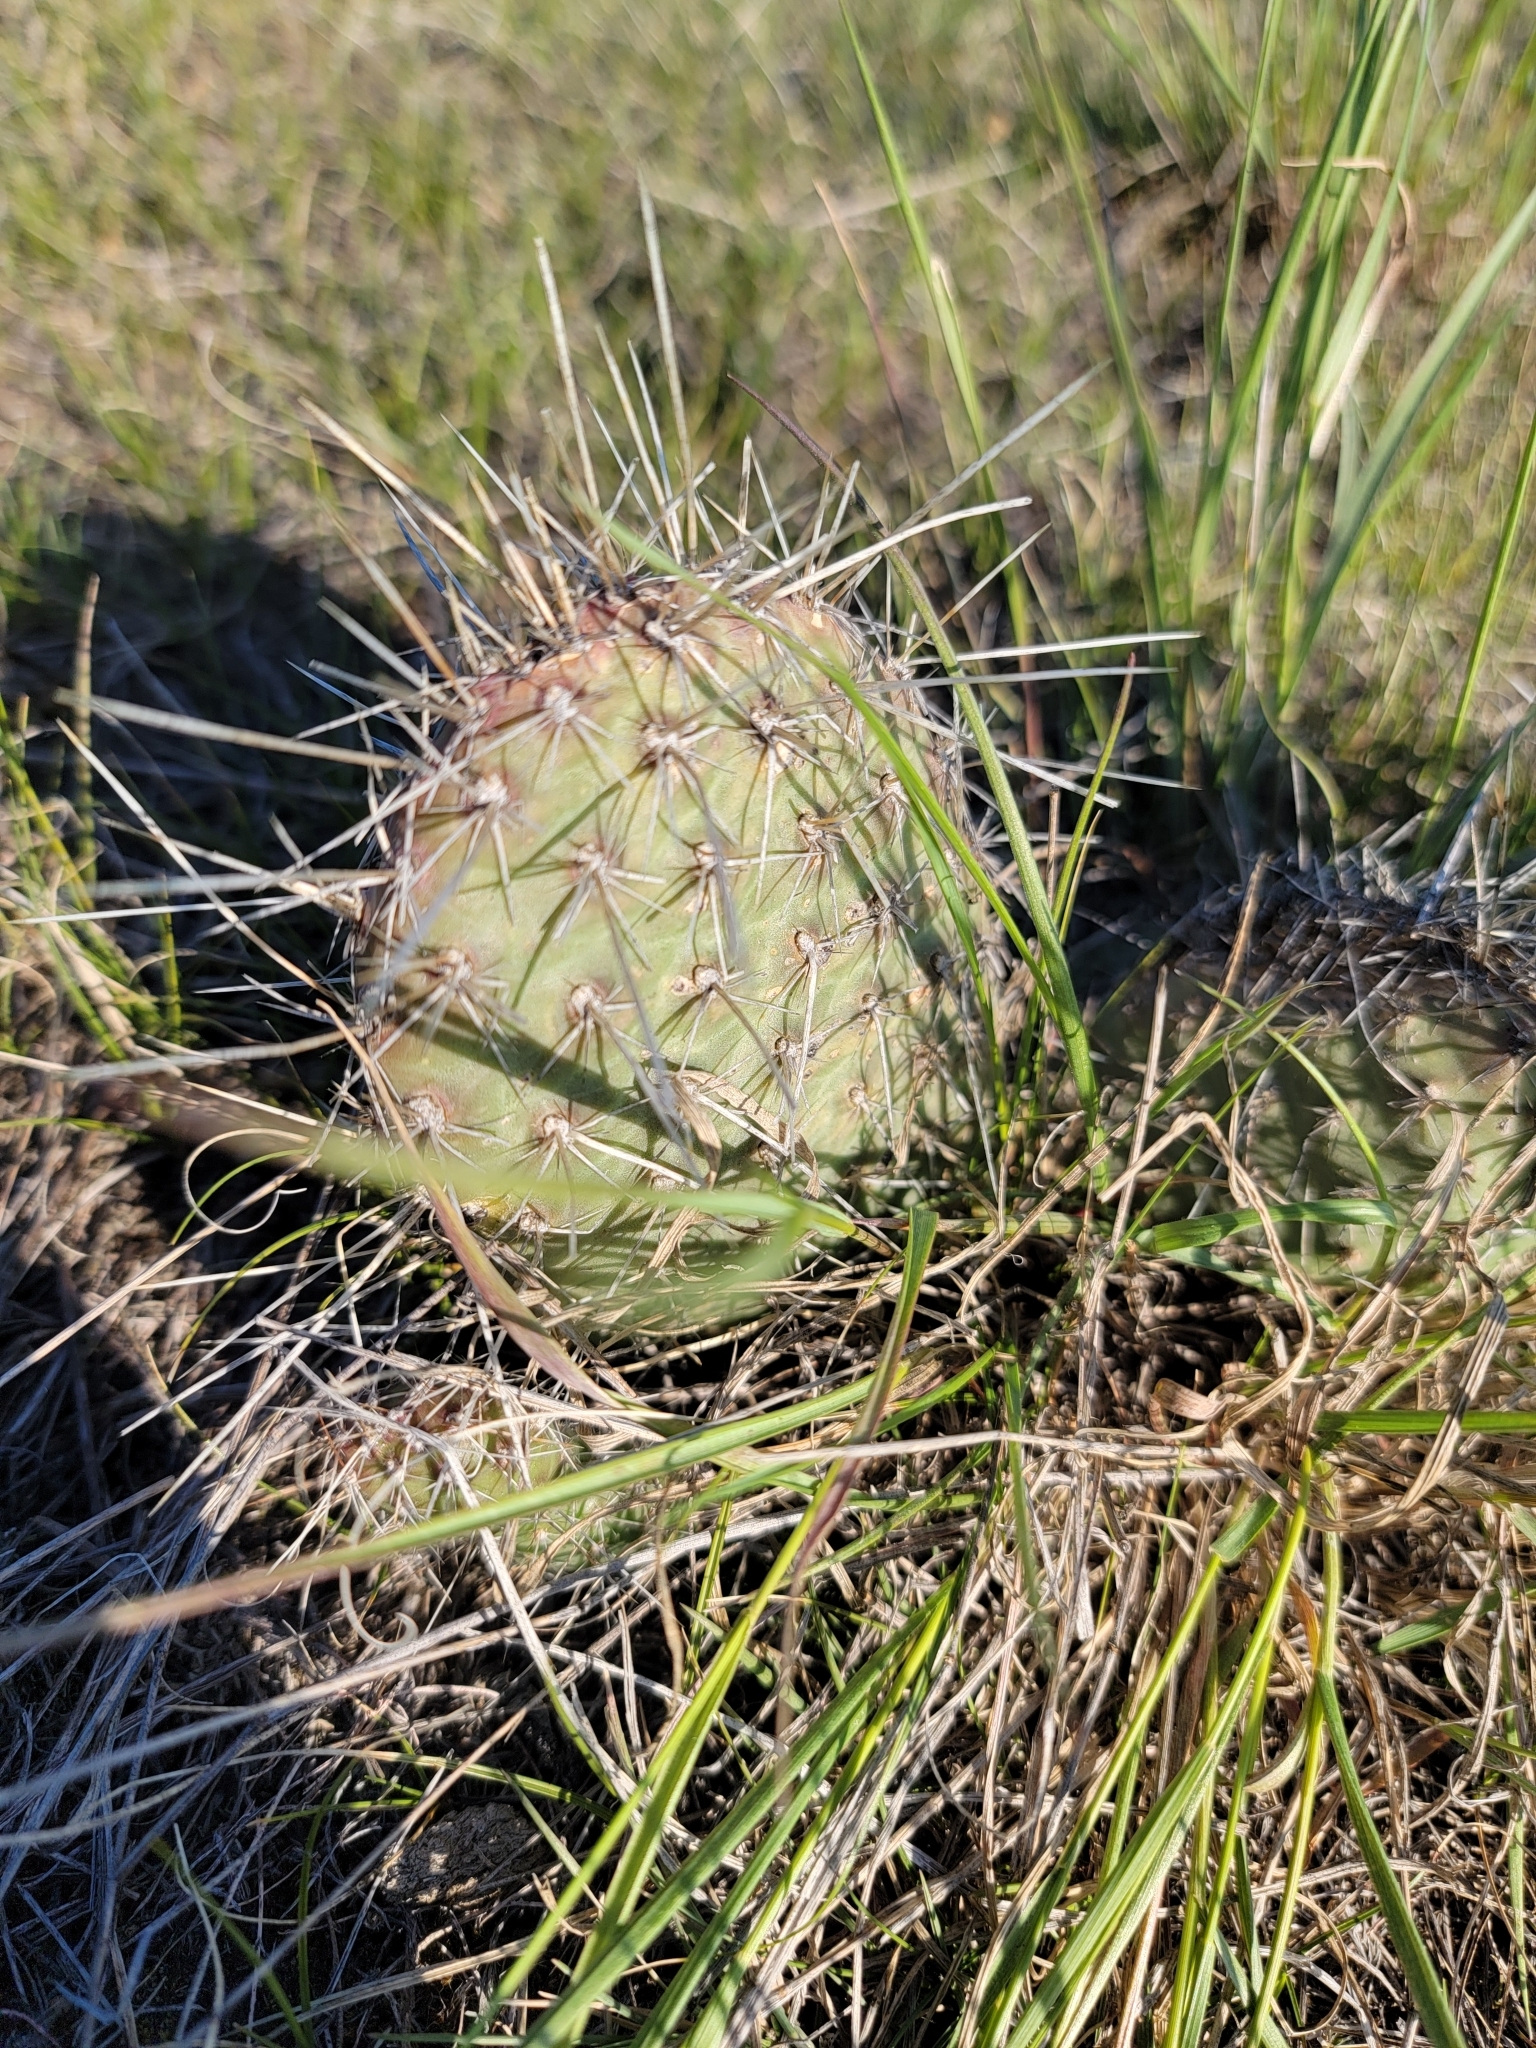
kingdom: Plantae
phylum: Tracheophyta
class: Magnoliopsida
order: Caryophyllales
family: Cactaceae
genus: Opuntia
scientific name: Opuntia polyacantha
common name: Plains prickly-pear
